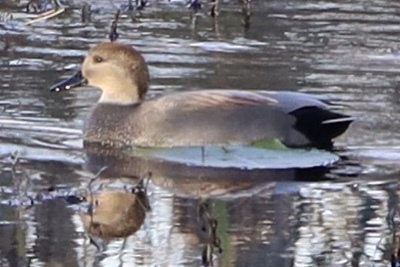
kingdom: Animalia
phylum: Chordata
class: Aves
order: Anseriformes
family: Anatidae
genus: Mareca
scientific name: Mareca strepera
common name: Gadwall
